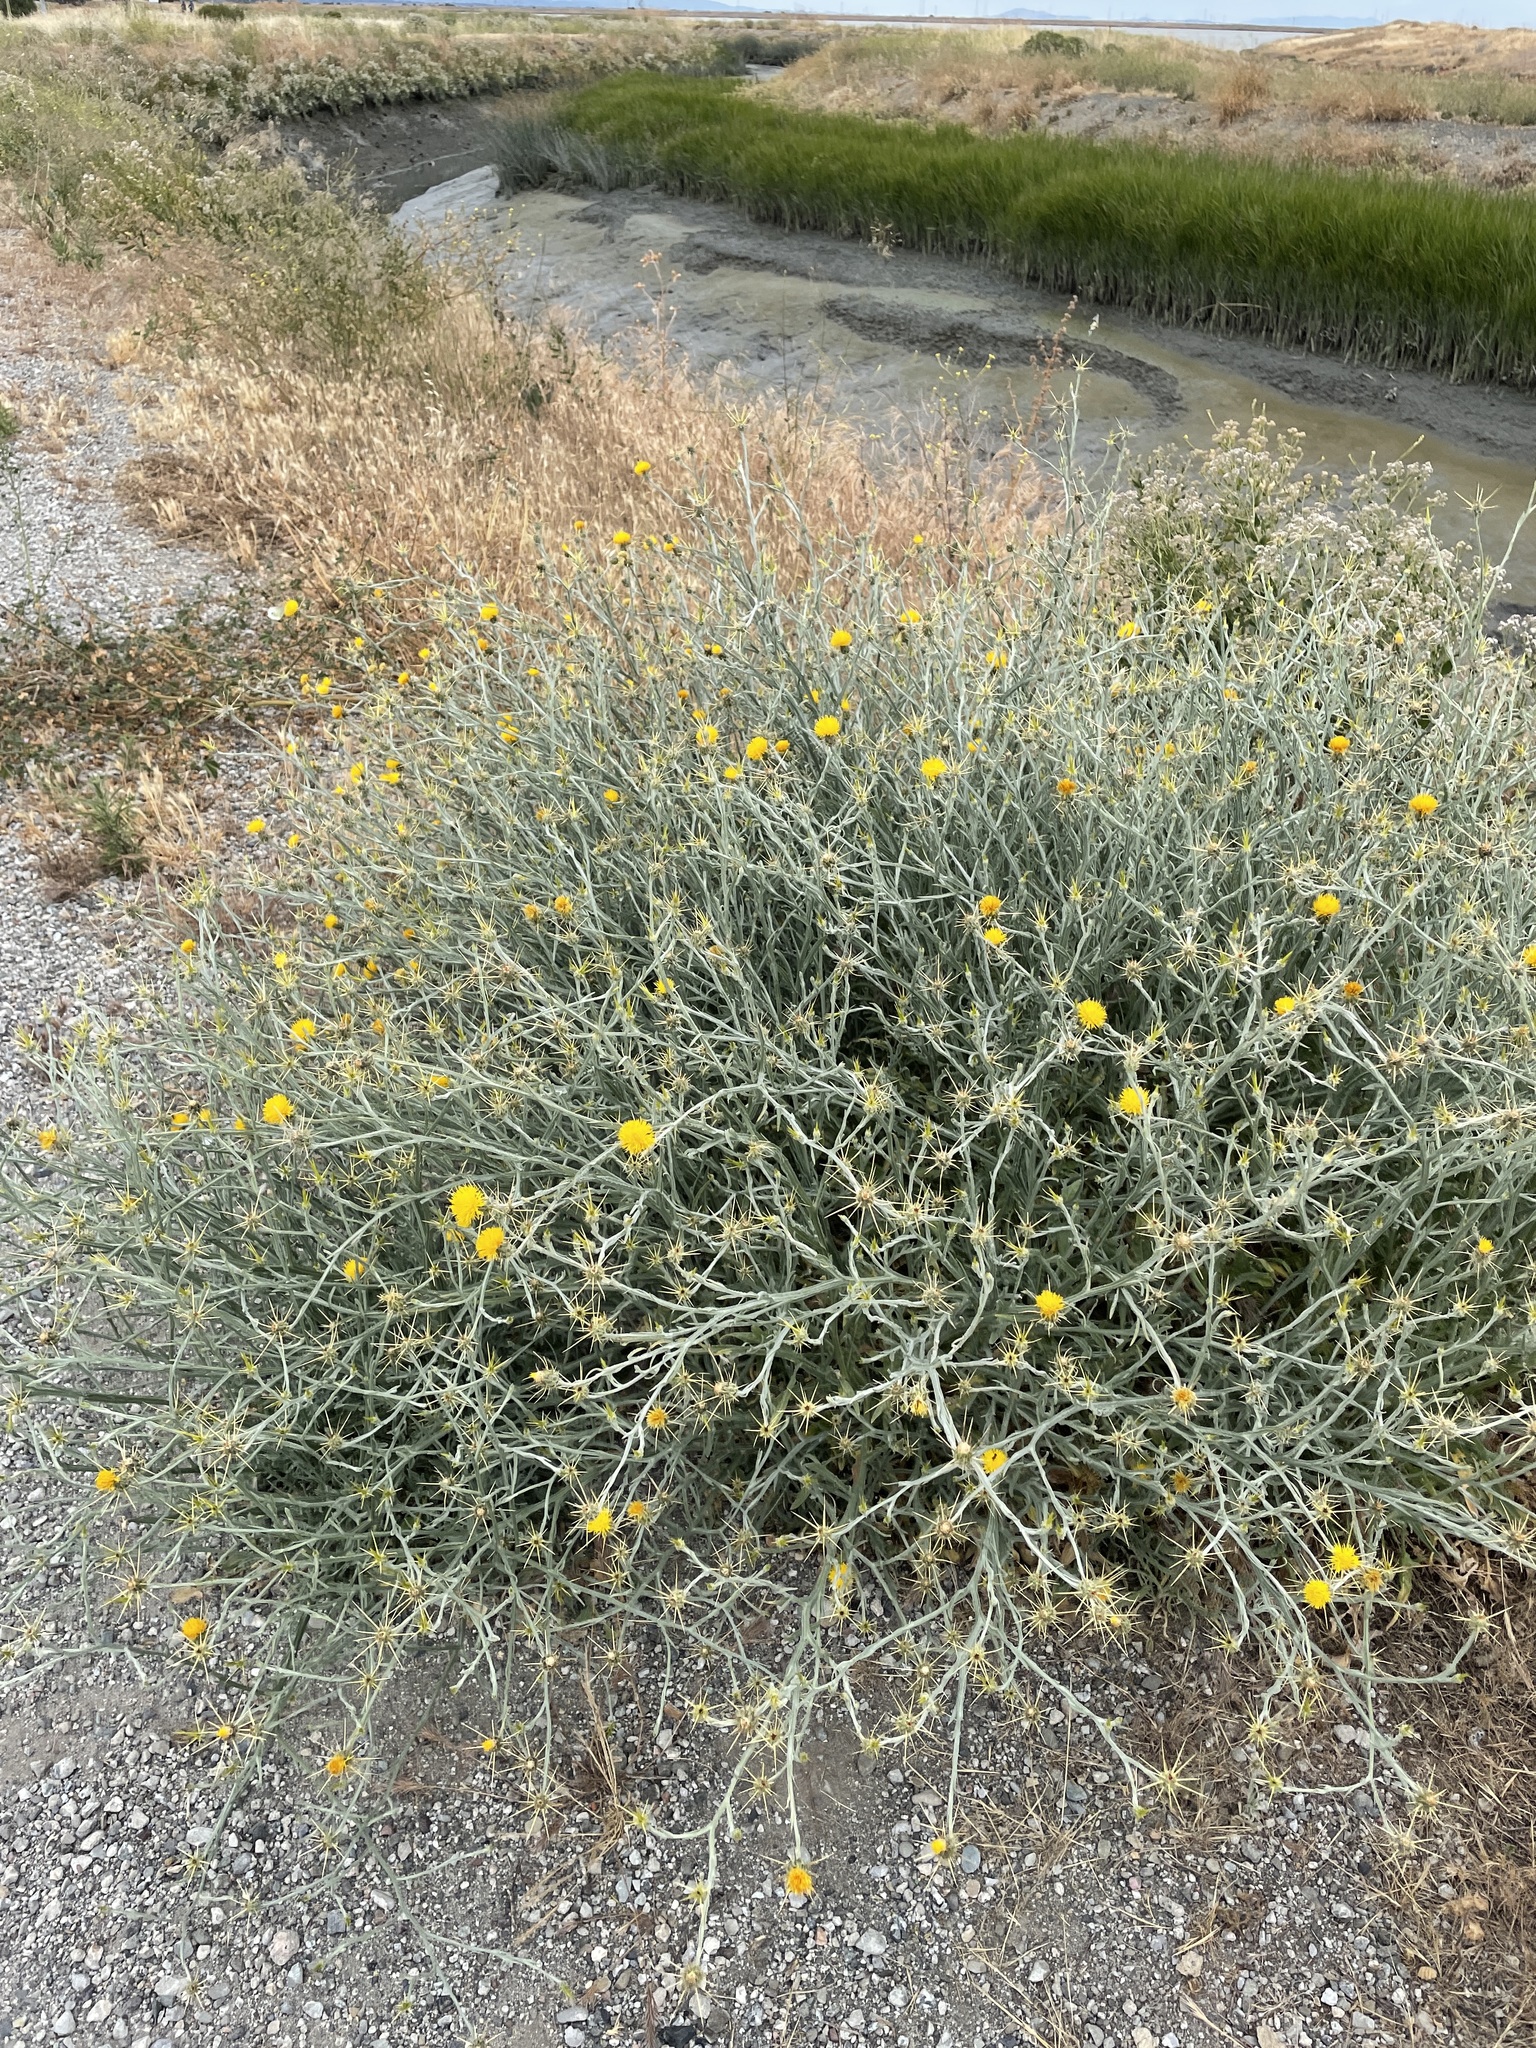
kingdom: Plantae
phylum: Tracheophyta
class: Magnoliopsida
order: Asterales
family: Asteraceae
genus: Centaurea
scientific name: Centaurea solstitialis
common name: Yellow star-thistle
